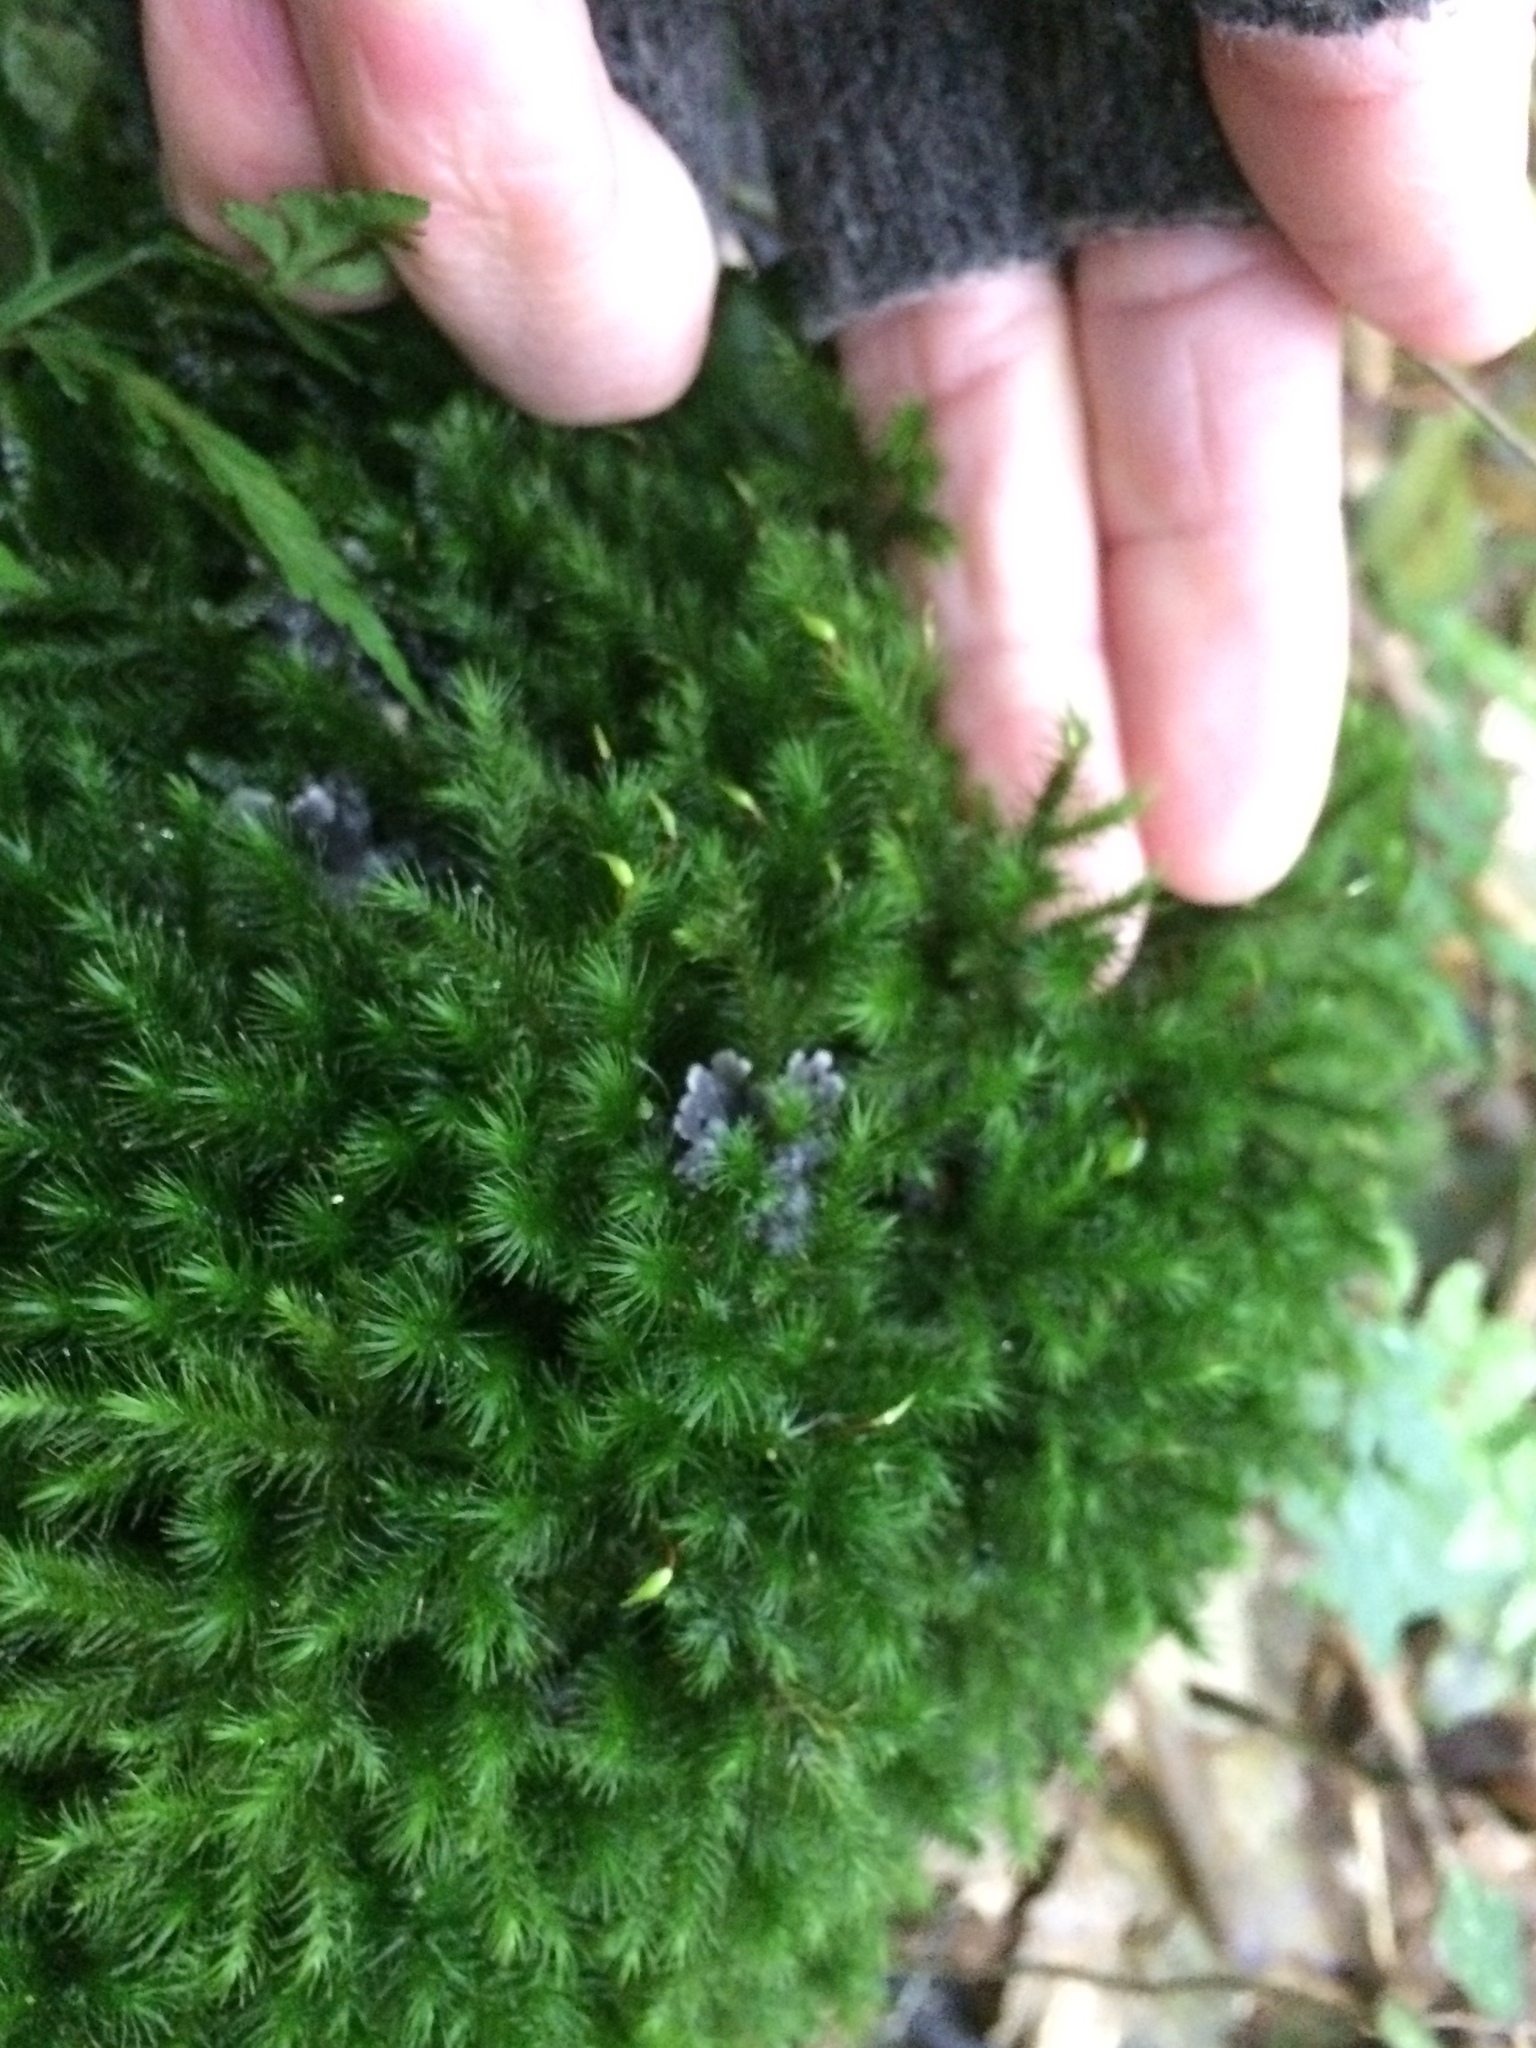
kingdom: Plantae
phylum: Bryophyta
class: Bryopsida
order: Hypnales
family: Neckeraceae
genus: Echinodiopsis
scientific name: Echinodiopsis hispida
